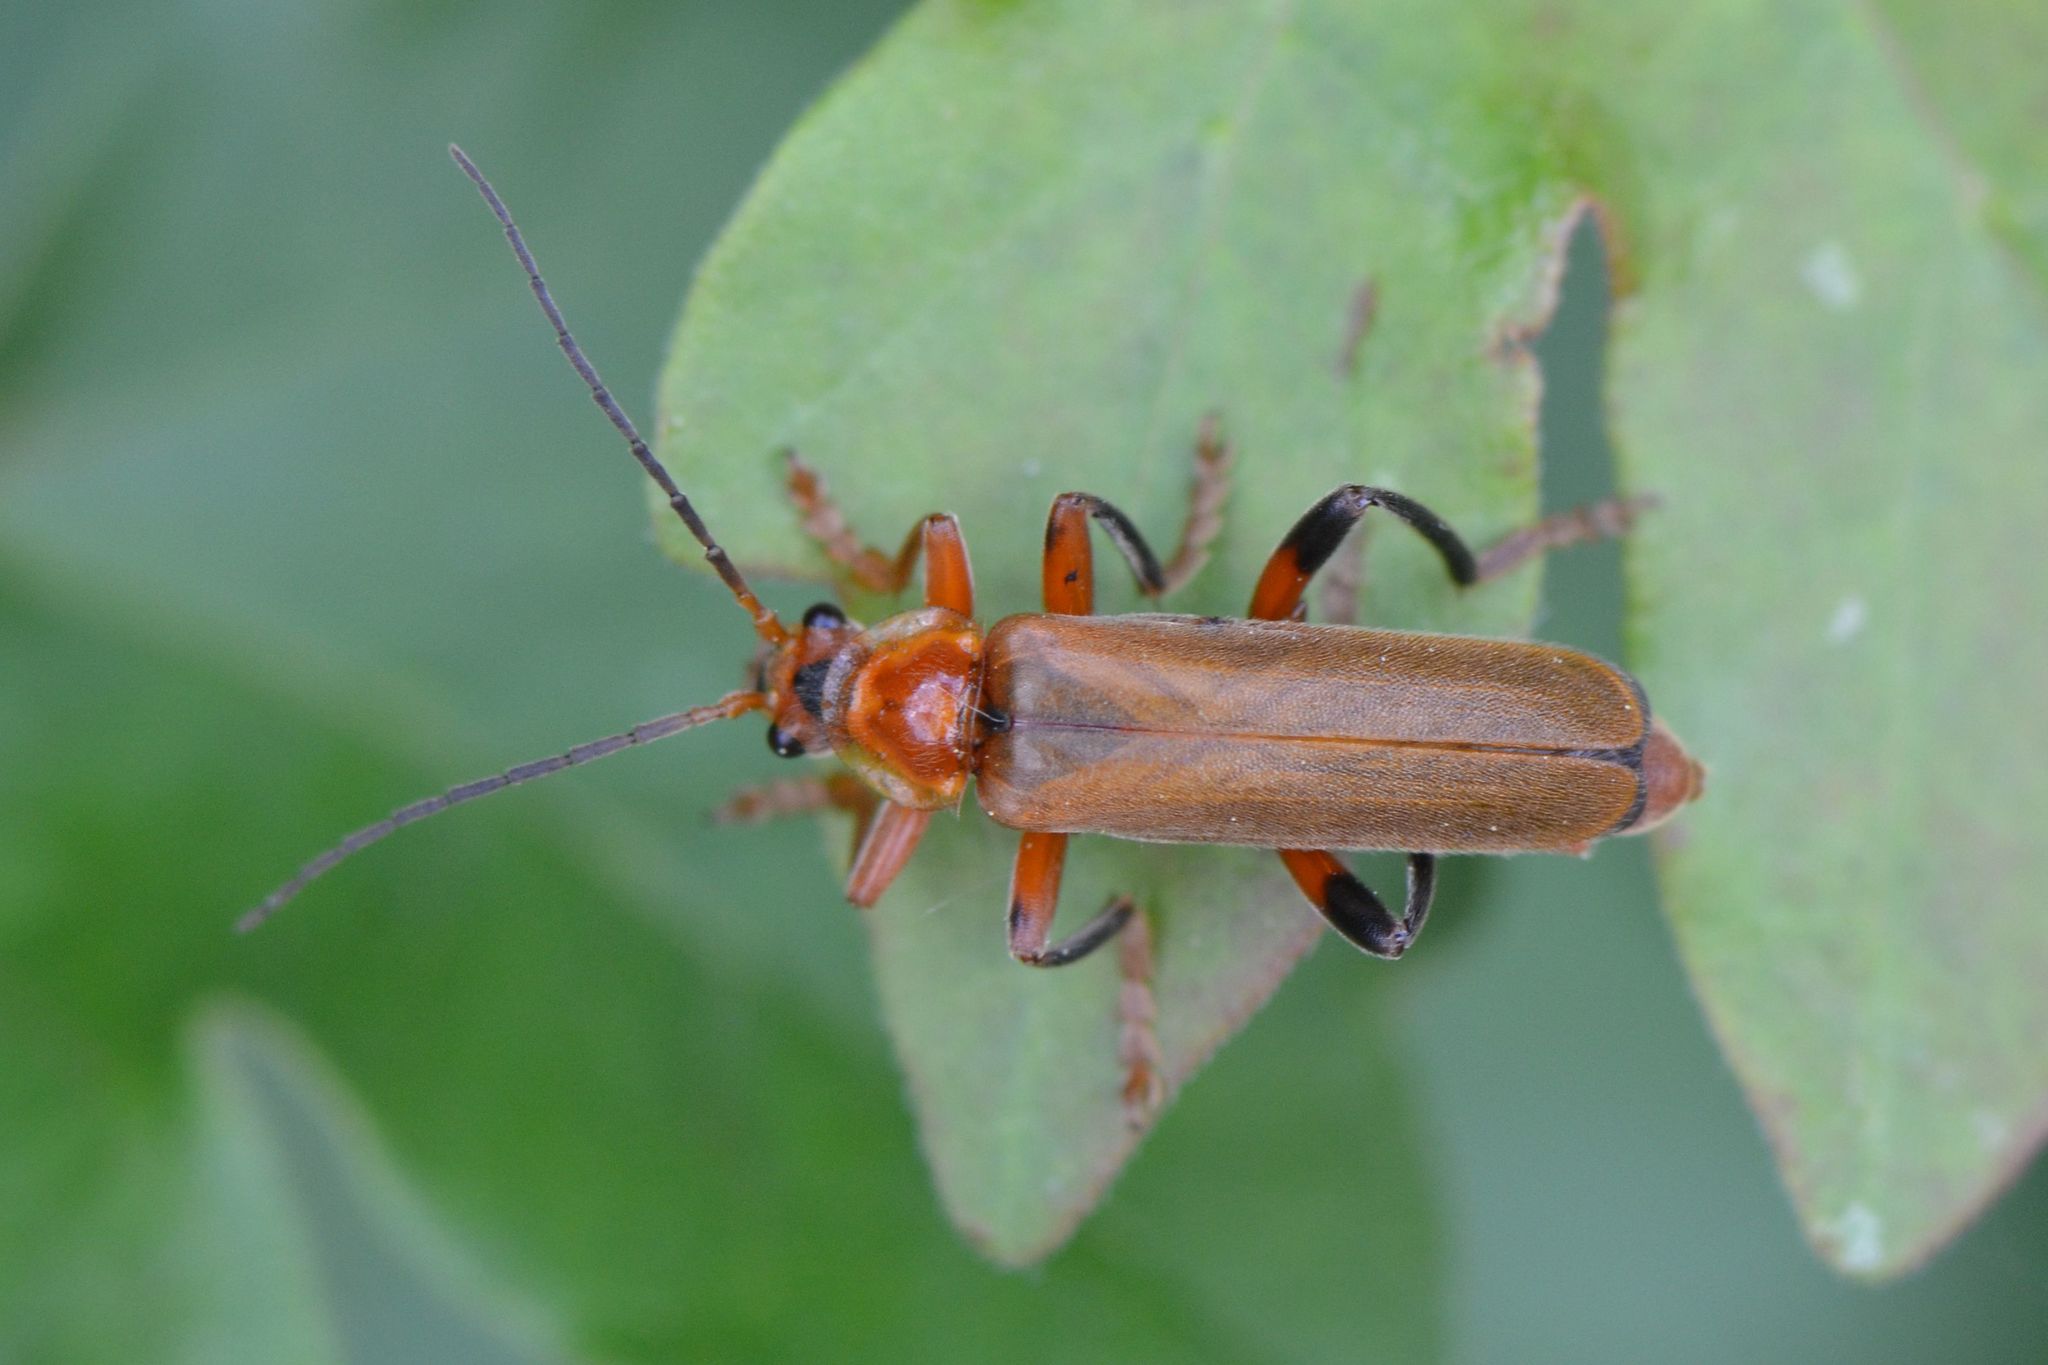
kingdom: Animalia
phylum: Arthropoda
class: Insecta
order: Coleoptera
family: Cantharidae
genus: Cantharis
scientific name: Cantharis livida
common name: Livid soldier beetle
